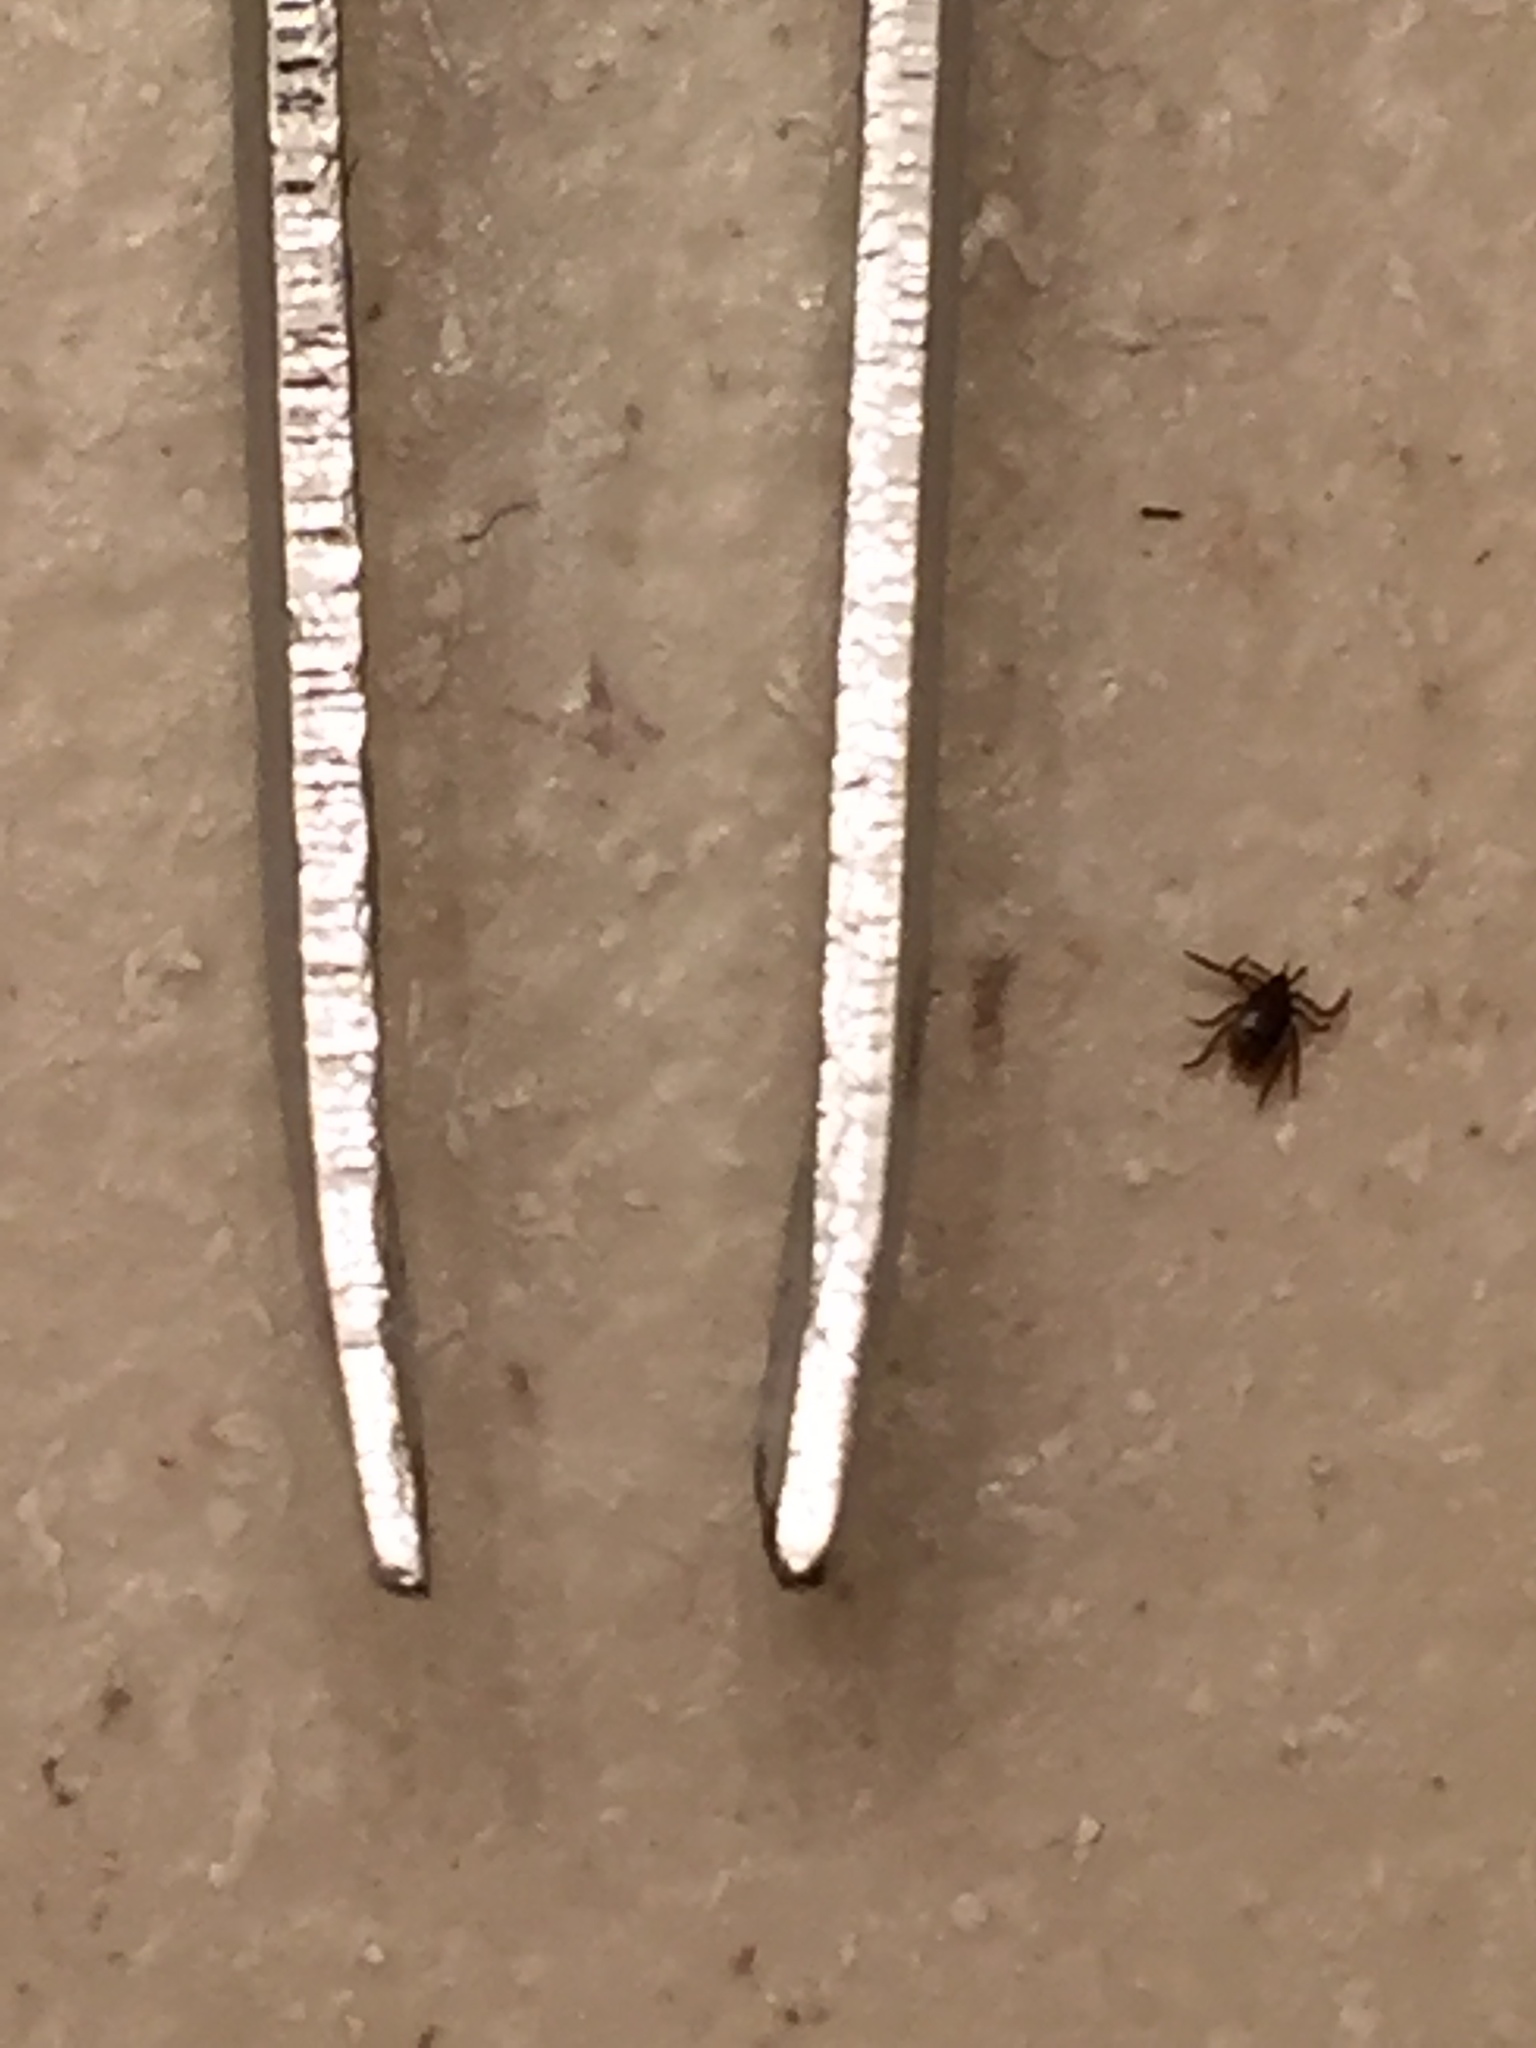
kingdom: Animalia
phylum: Arthropoda
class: Arachnida
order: Ixodida
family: Ixodidae
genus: Ixodes
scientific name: Ixodes scapularis
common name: Black legged tick
